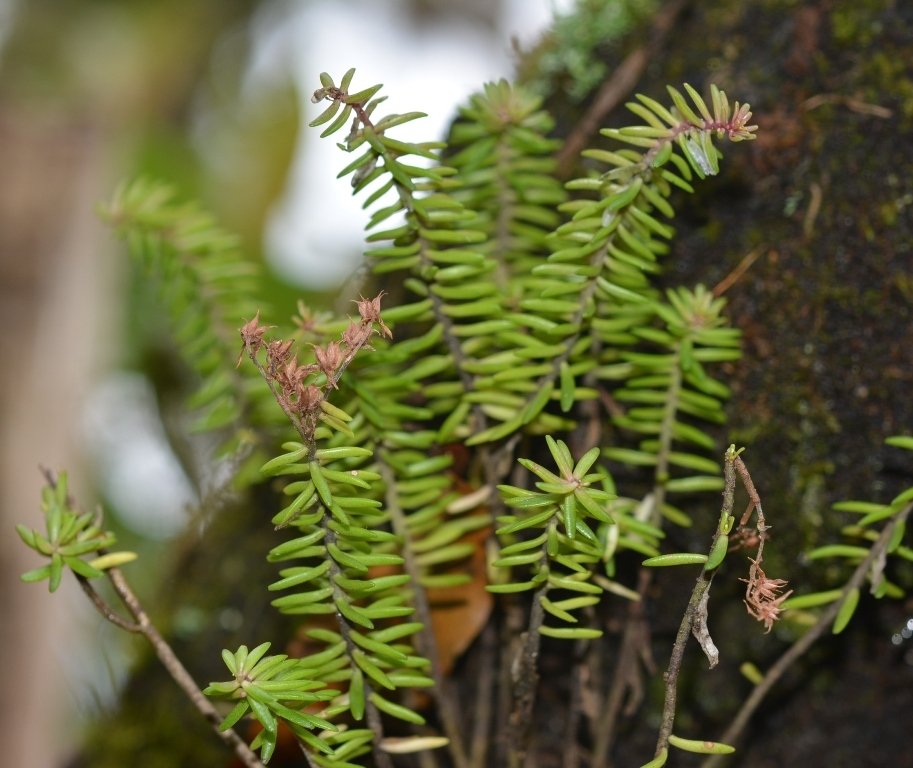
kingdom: Plantae
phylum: Tracheophyta
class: Magnoliopsida
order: Saxifragales
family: Crassulaceae
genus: Sedum
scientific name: Sedum guatemalense
